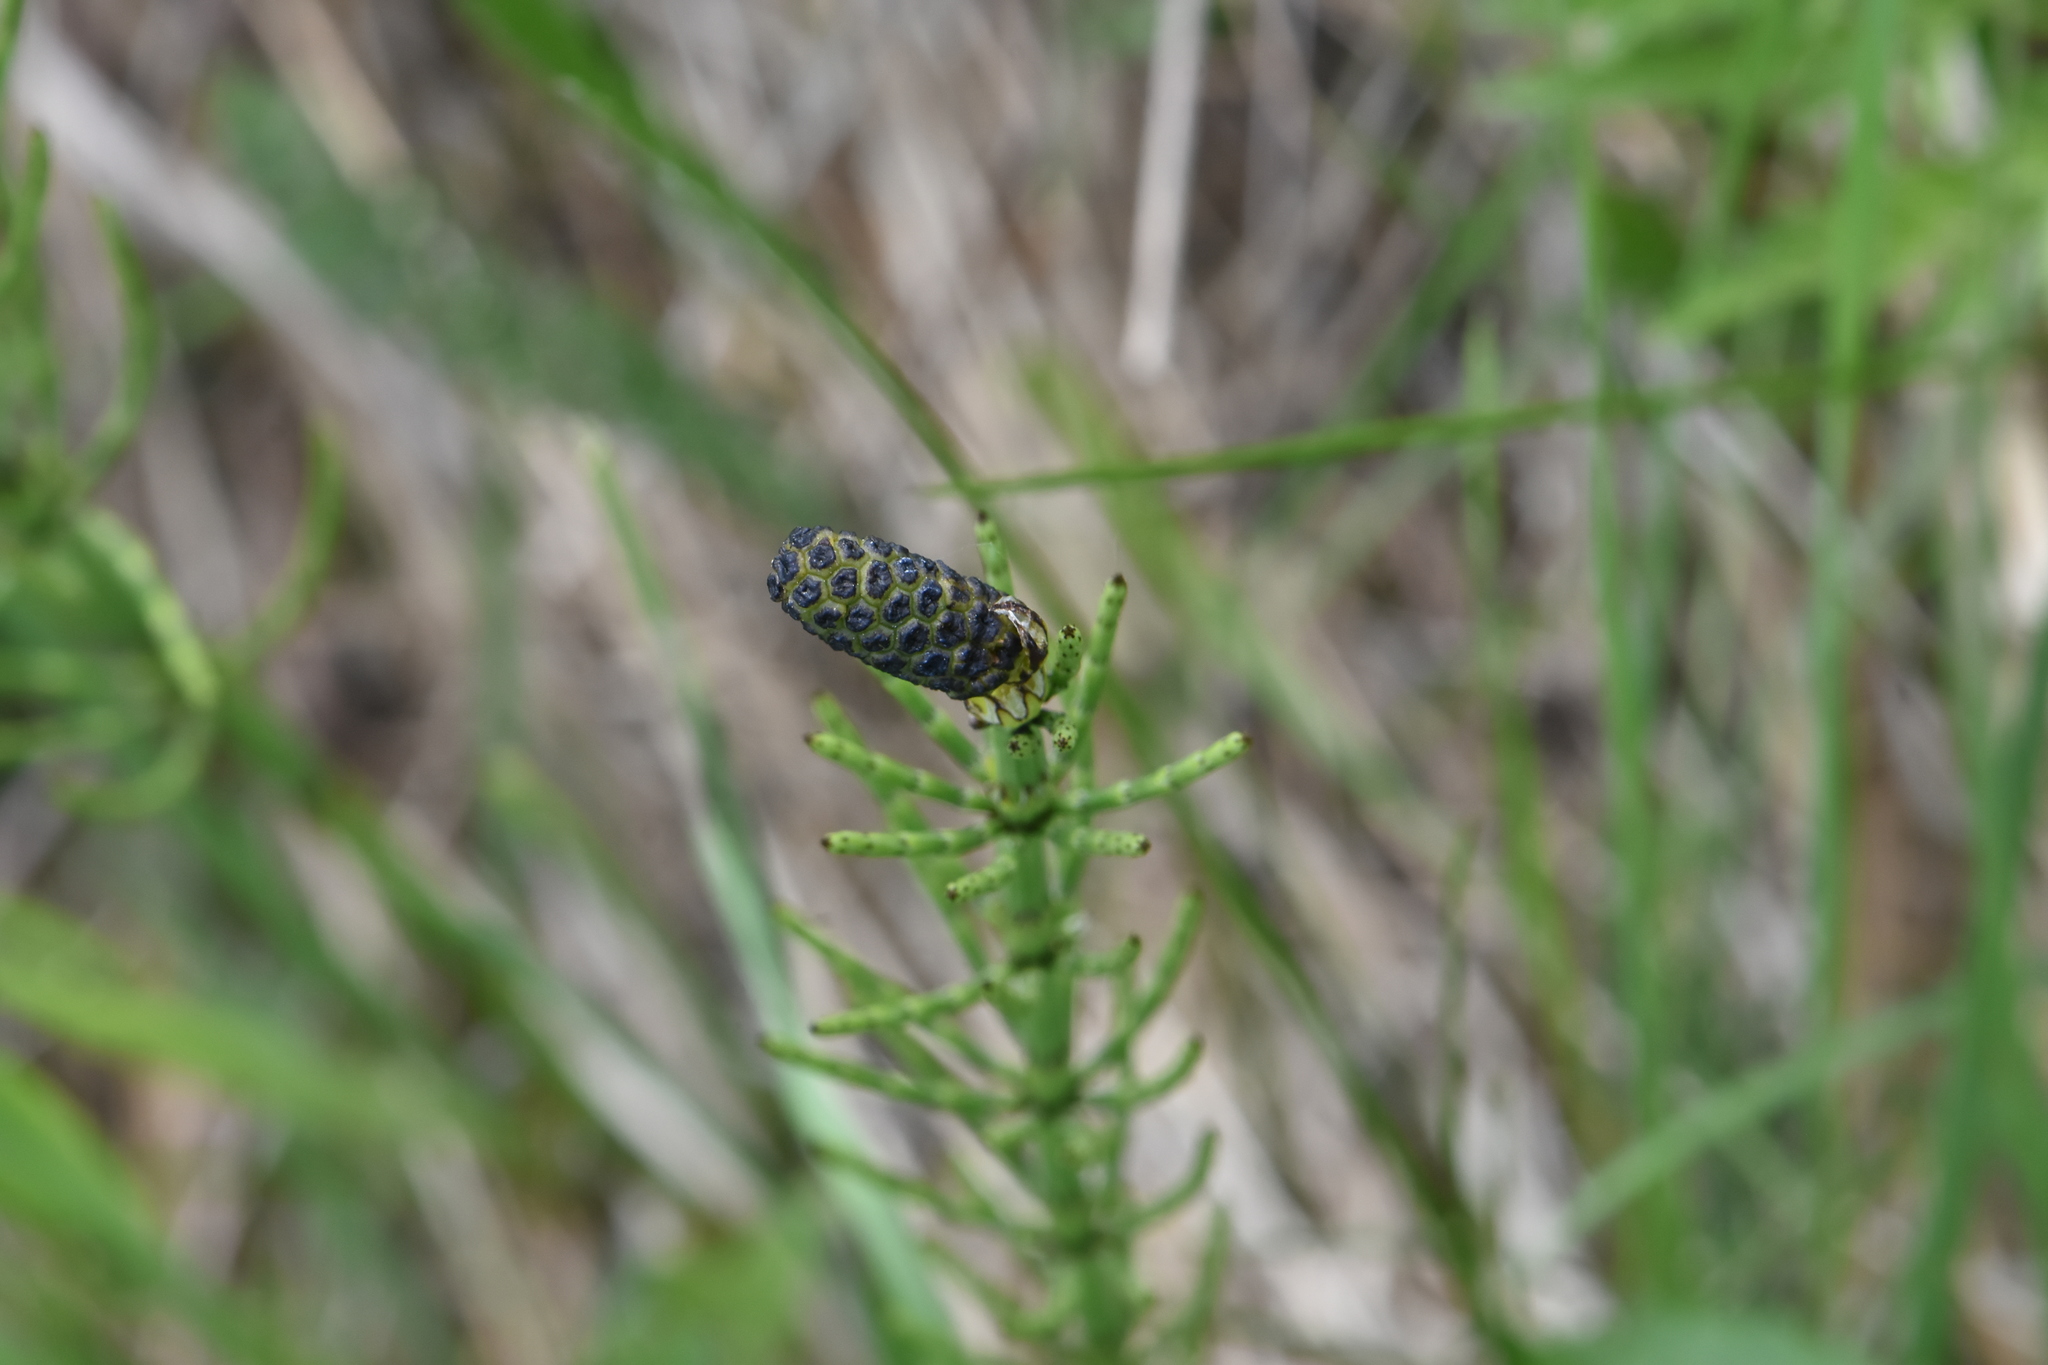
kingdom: Plantae
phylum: Tracheophyta
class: Polypodiopsida
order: Equisetales
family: Equisetaceae
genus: Equisetum
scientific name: Equisetum palustre
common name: Marsh horsetail
